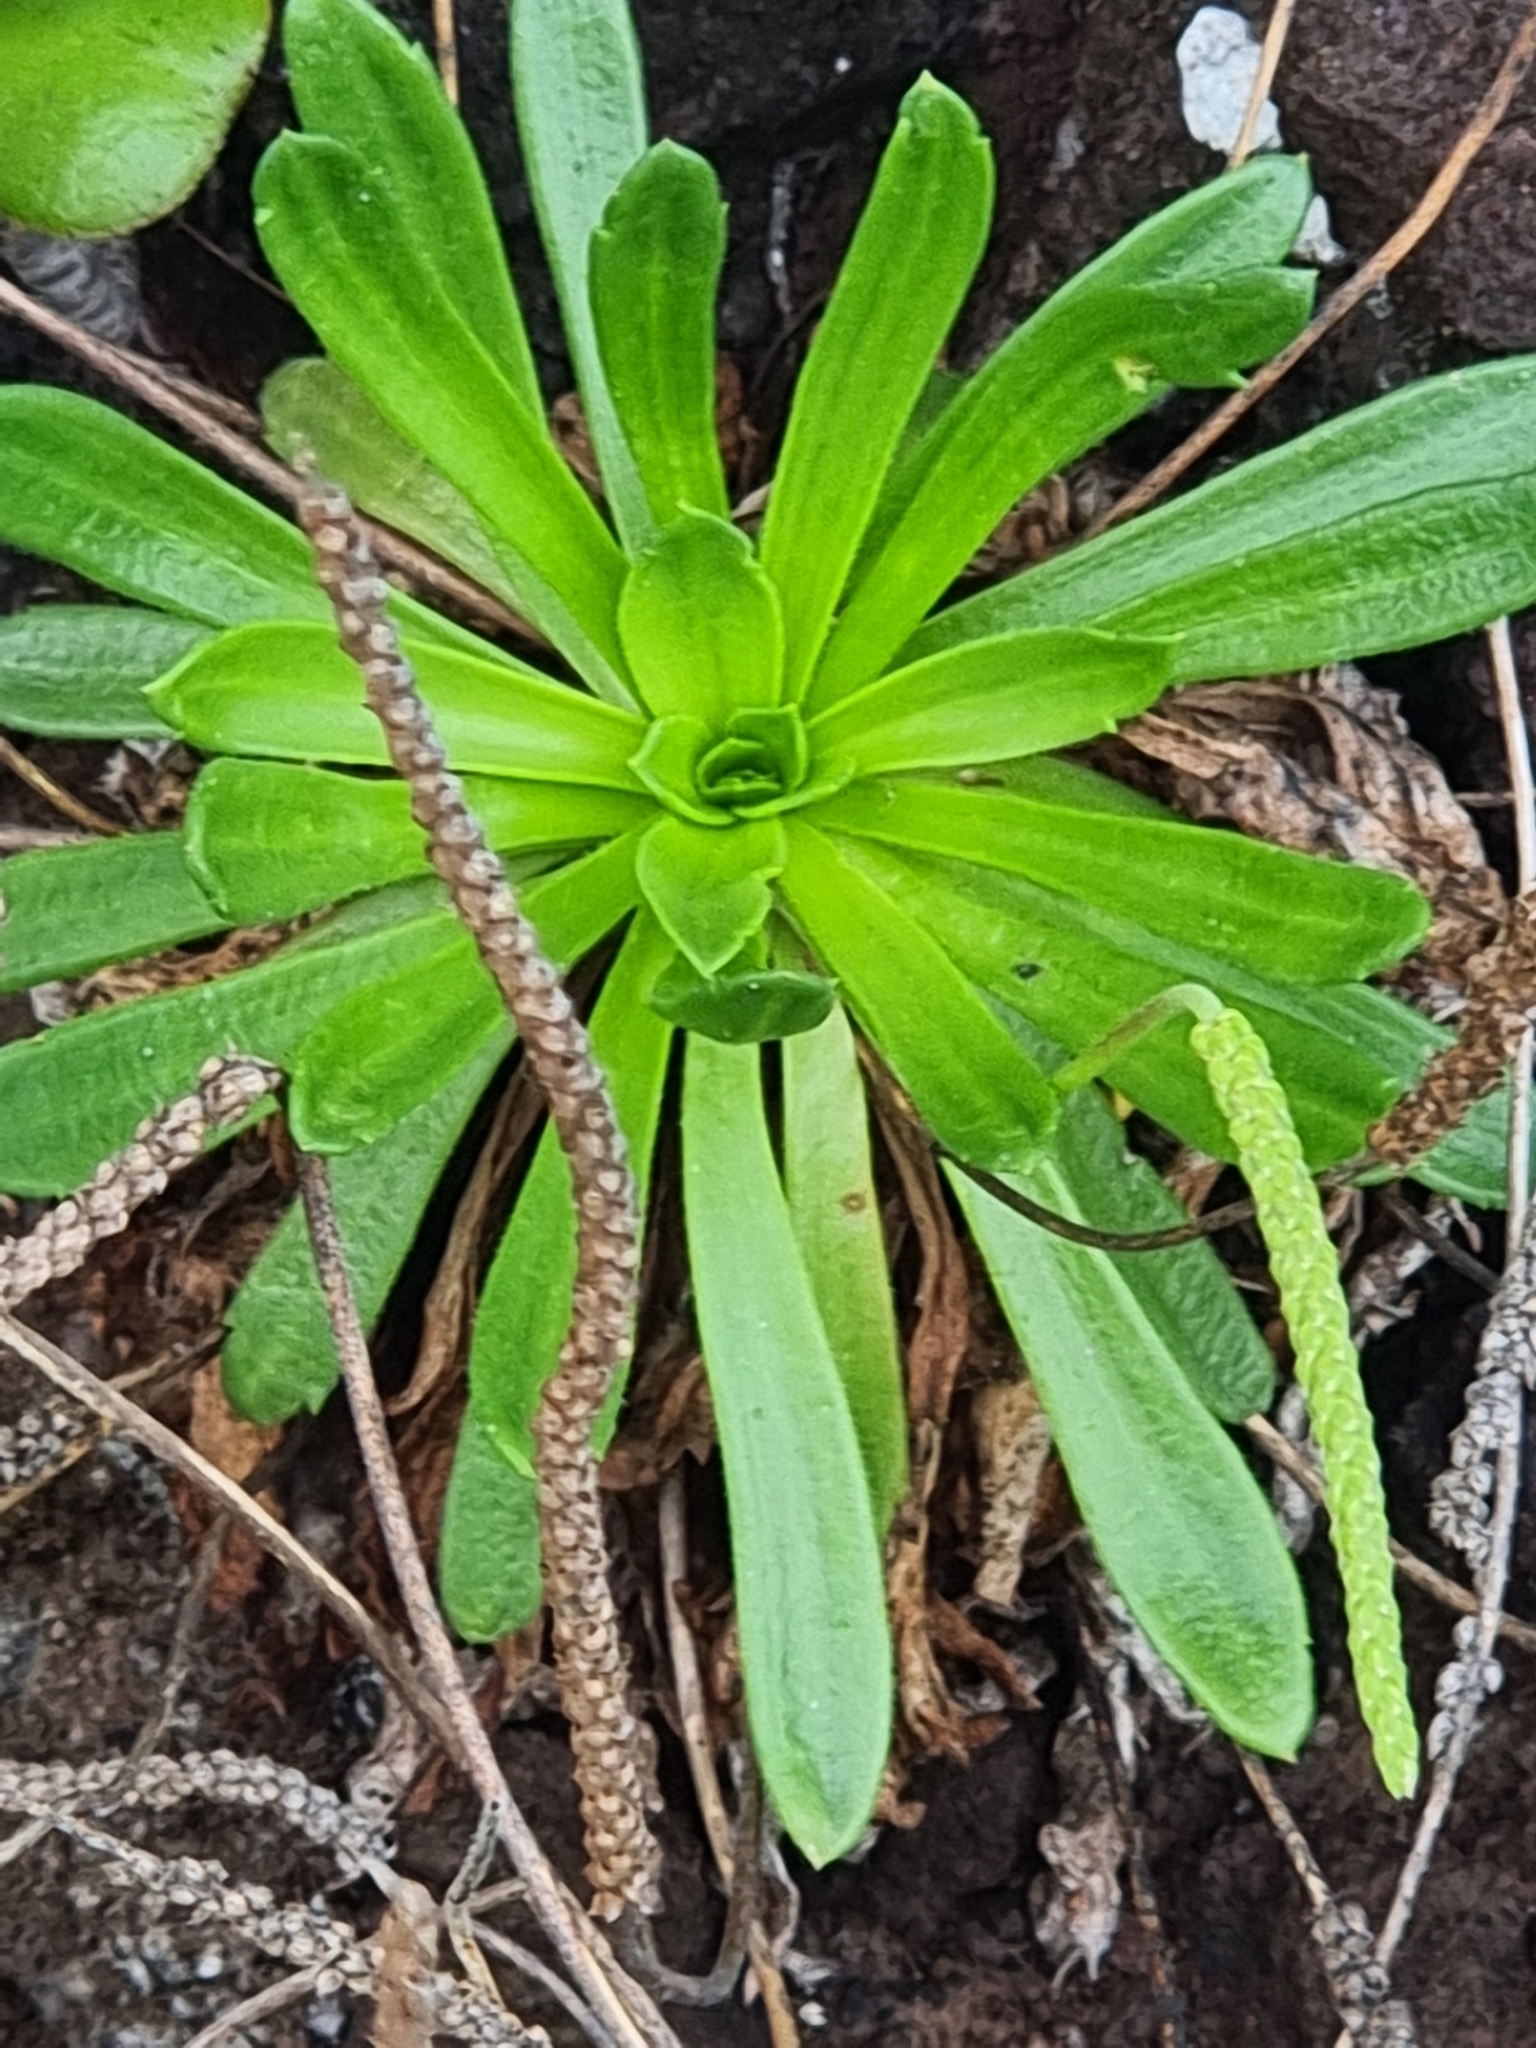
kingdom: Plantae
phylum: Tracheophyta
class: Magnoliopsida
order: Lamiales
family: Plantaginaceae
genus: Plantago
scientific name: Plantago coronopus
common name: Buck's-horn plantain
